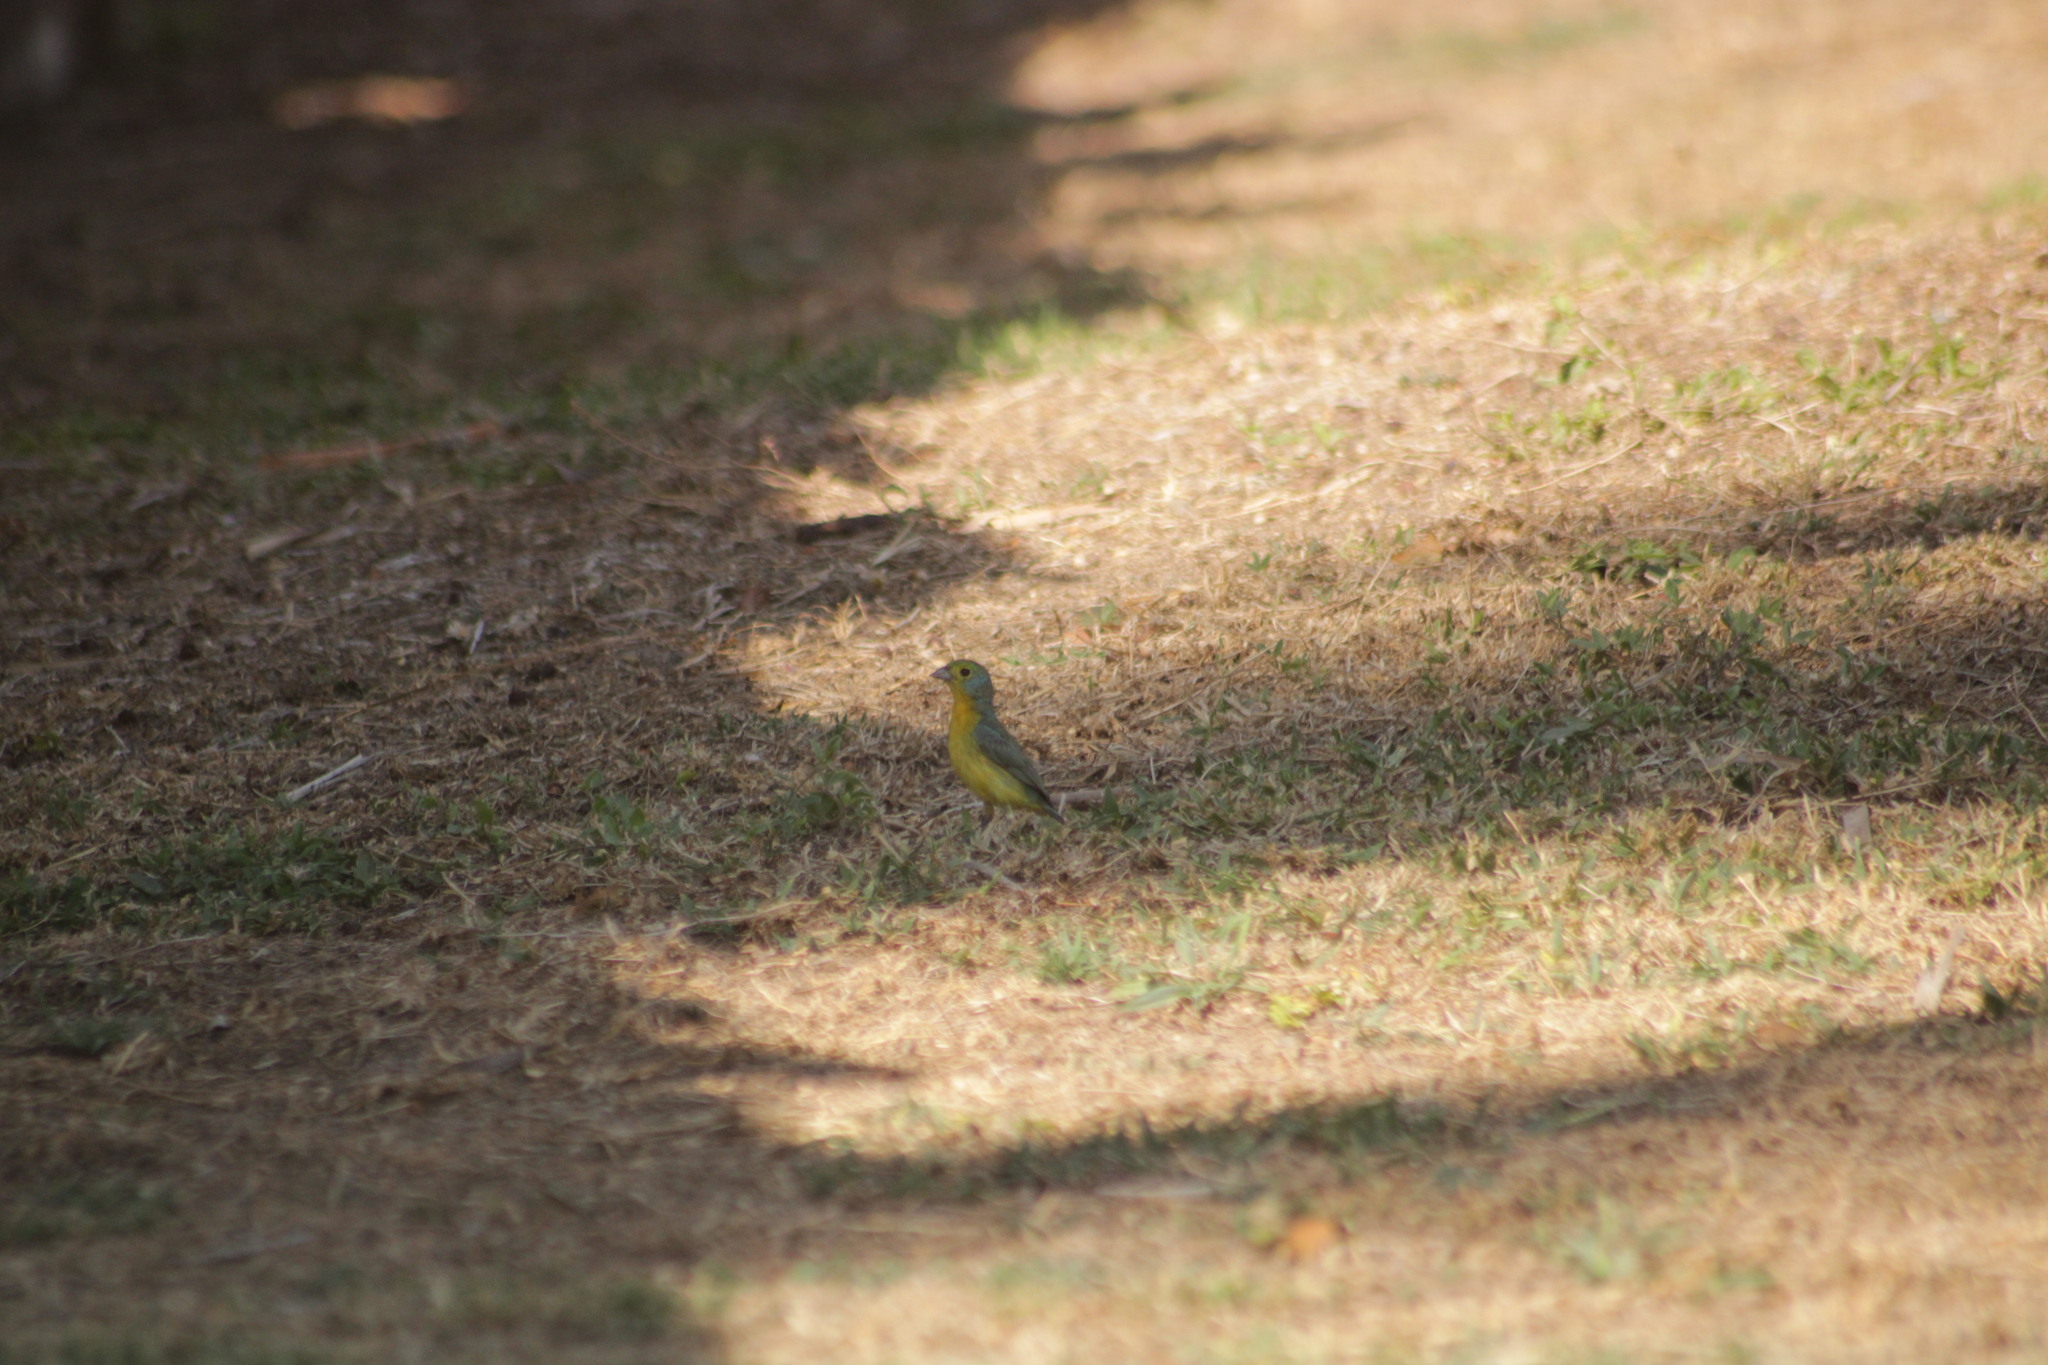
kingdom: Animalia
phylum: Chordata
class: Aves
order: Passeriformes
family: Cardinalidae
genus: Passerina
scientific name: Passerina leclancherii
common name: Orange-breasted bunting
